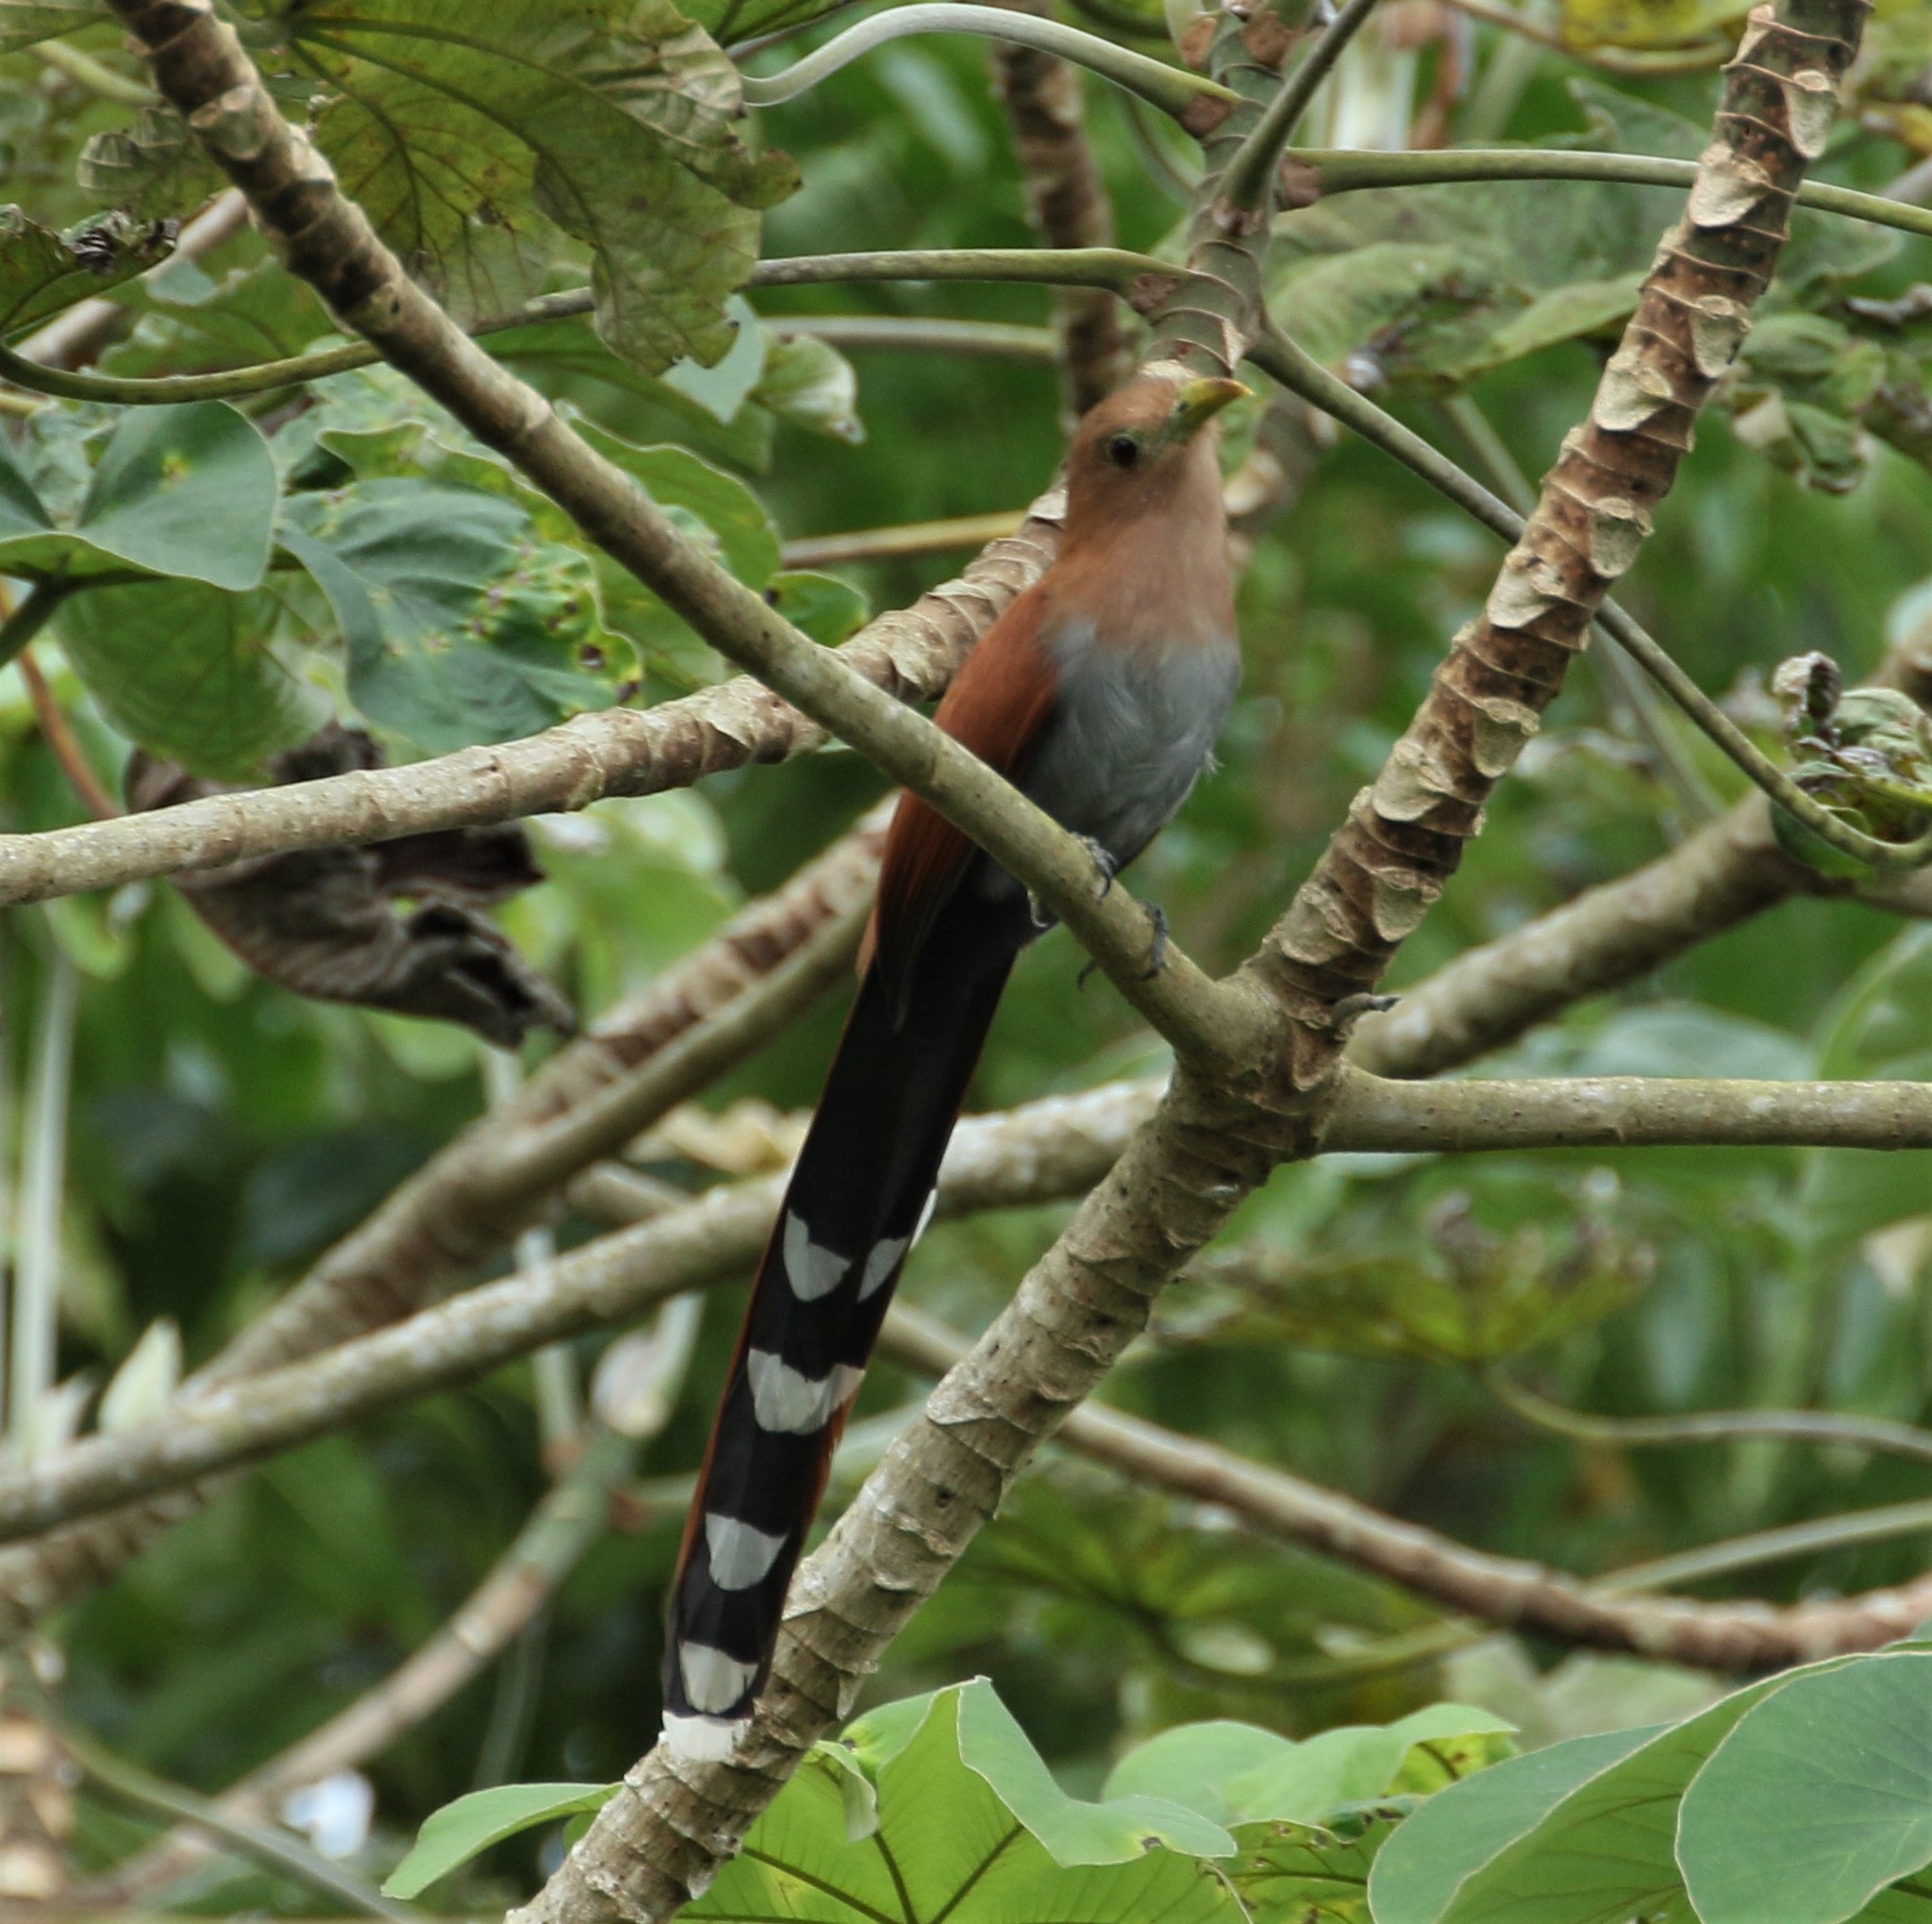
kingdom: Animalia
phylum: Chordata
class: Aves
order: Cuculiformes
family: Cuculidae
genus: Piaya
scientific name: Piaya cayana
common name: Squirrel cuckoo
